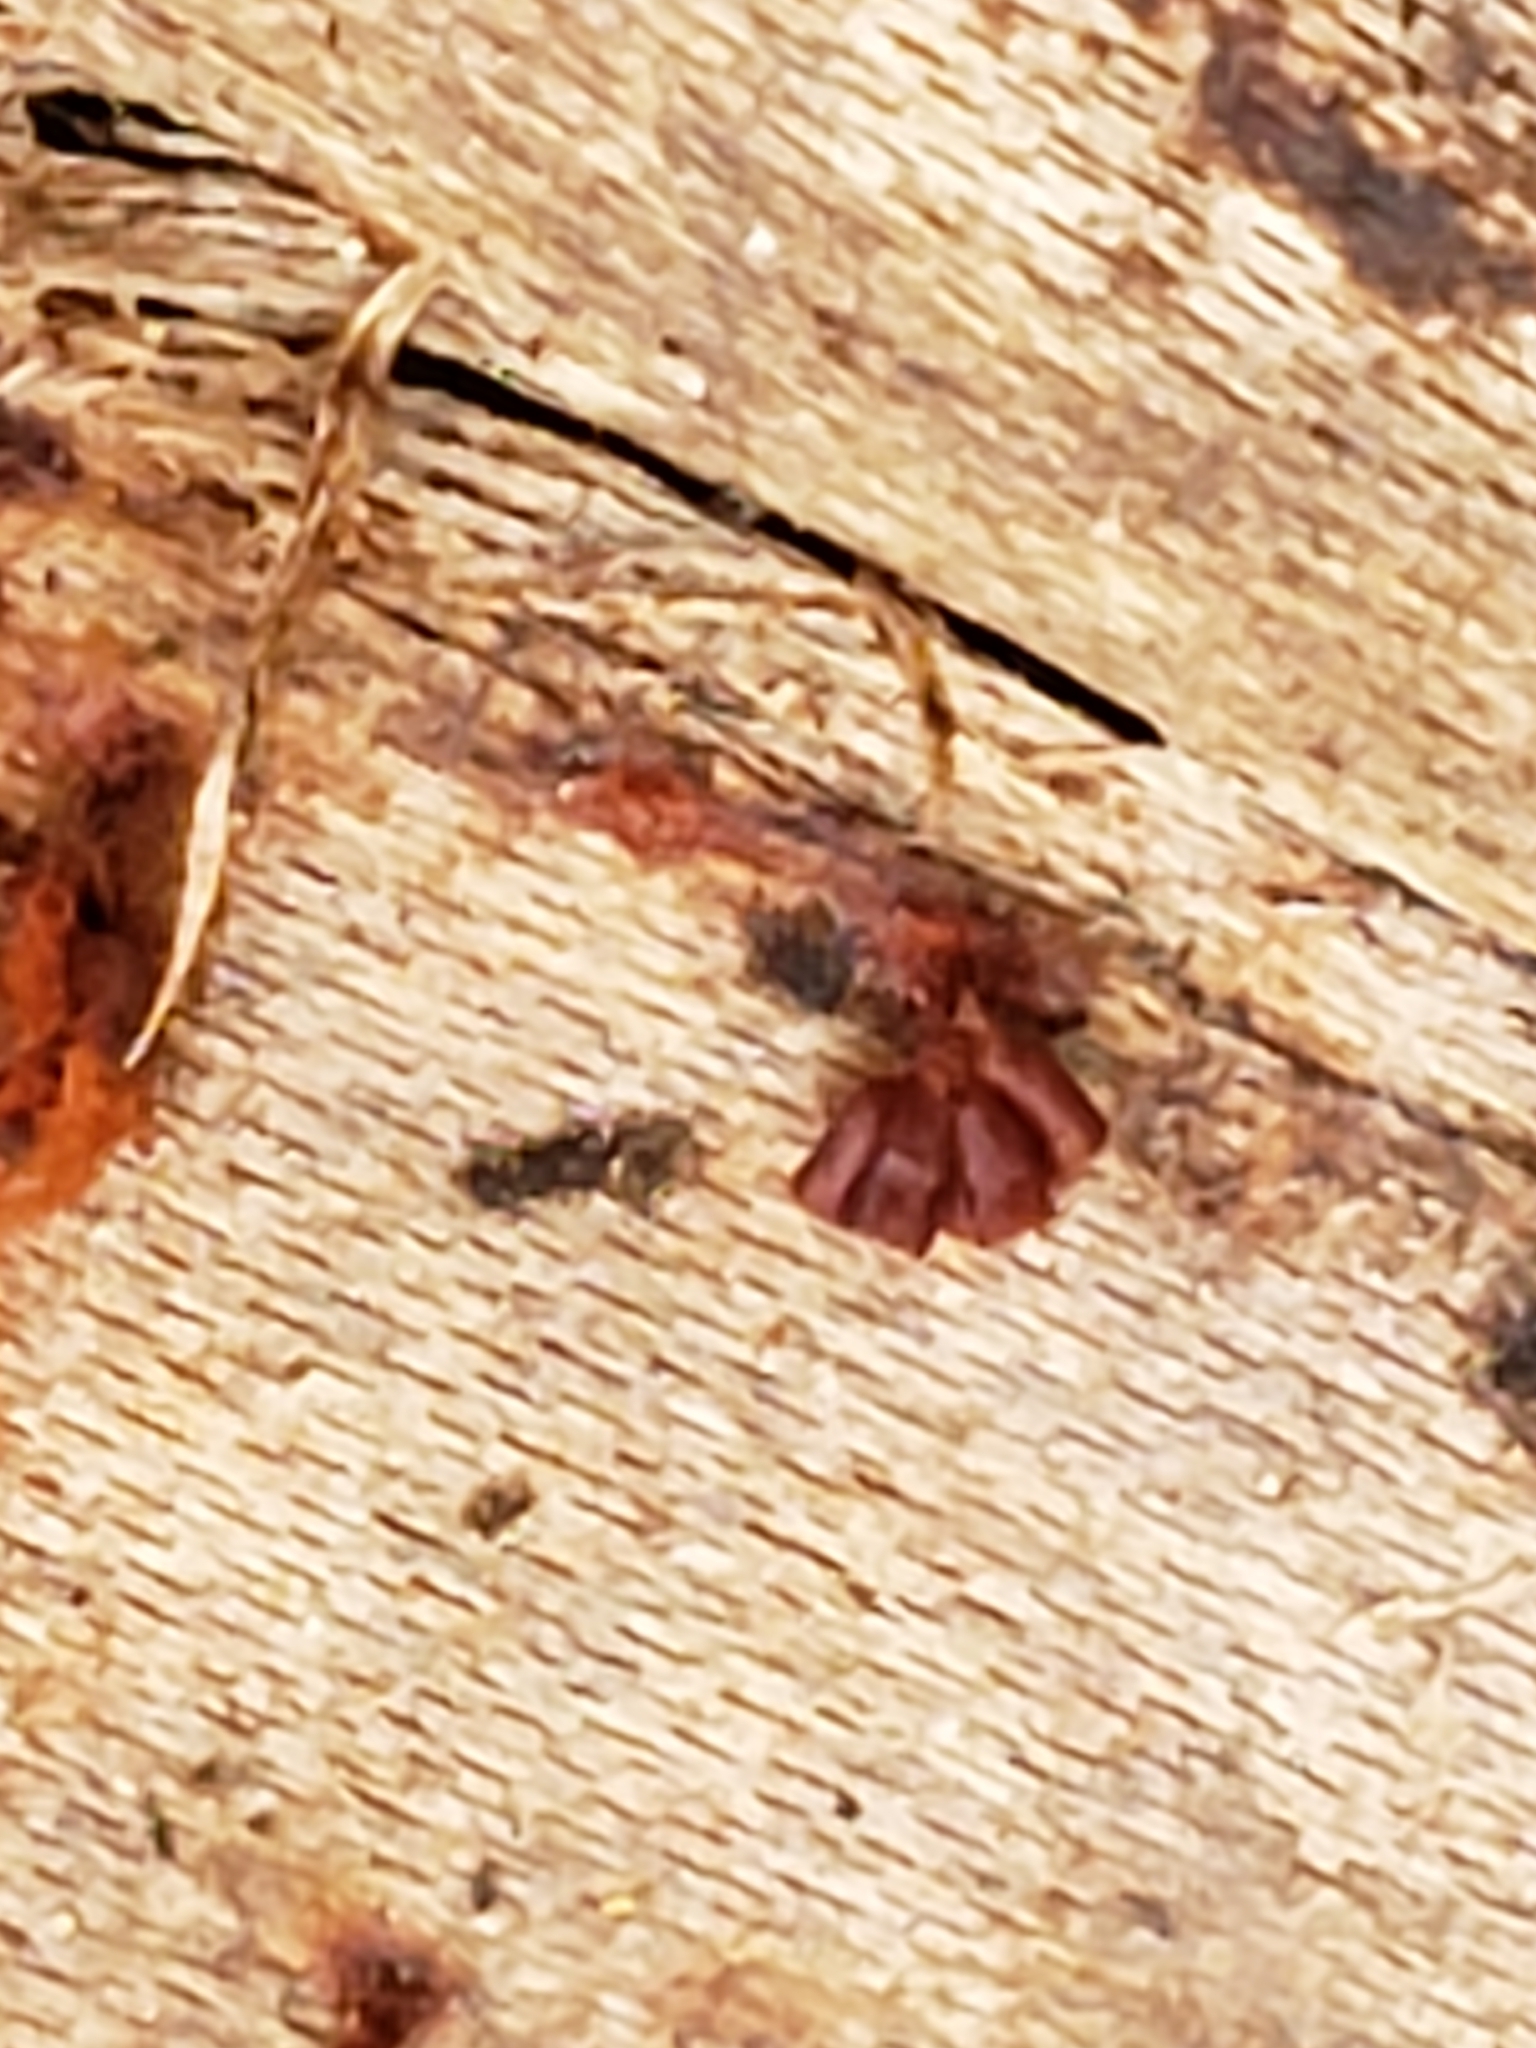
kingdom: Protozoa
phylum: Mycetozoa
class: Myxomycetes
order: Trichiales
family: Trichiaceae
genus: Metatrichia
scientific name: Metatrichia vesparia
